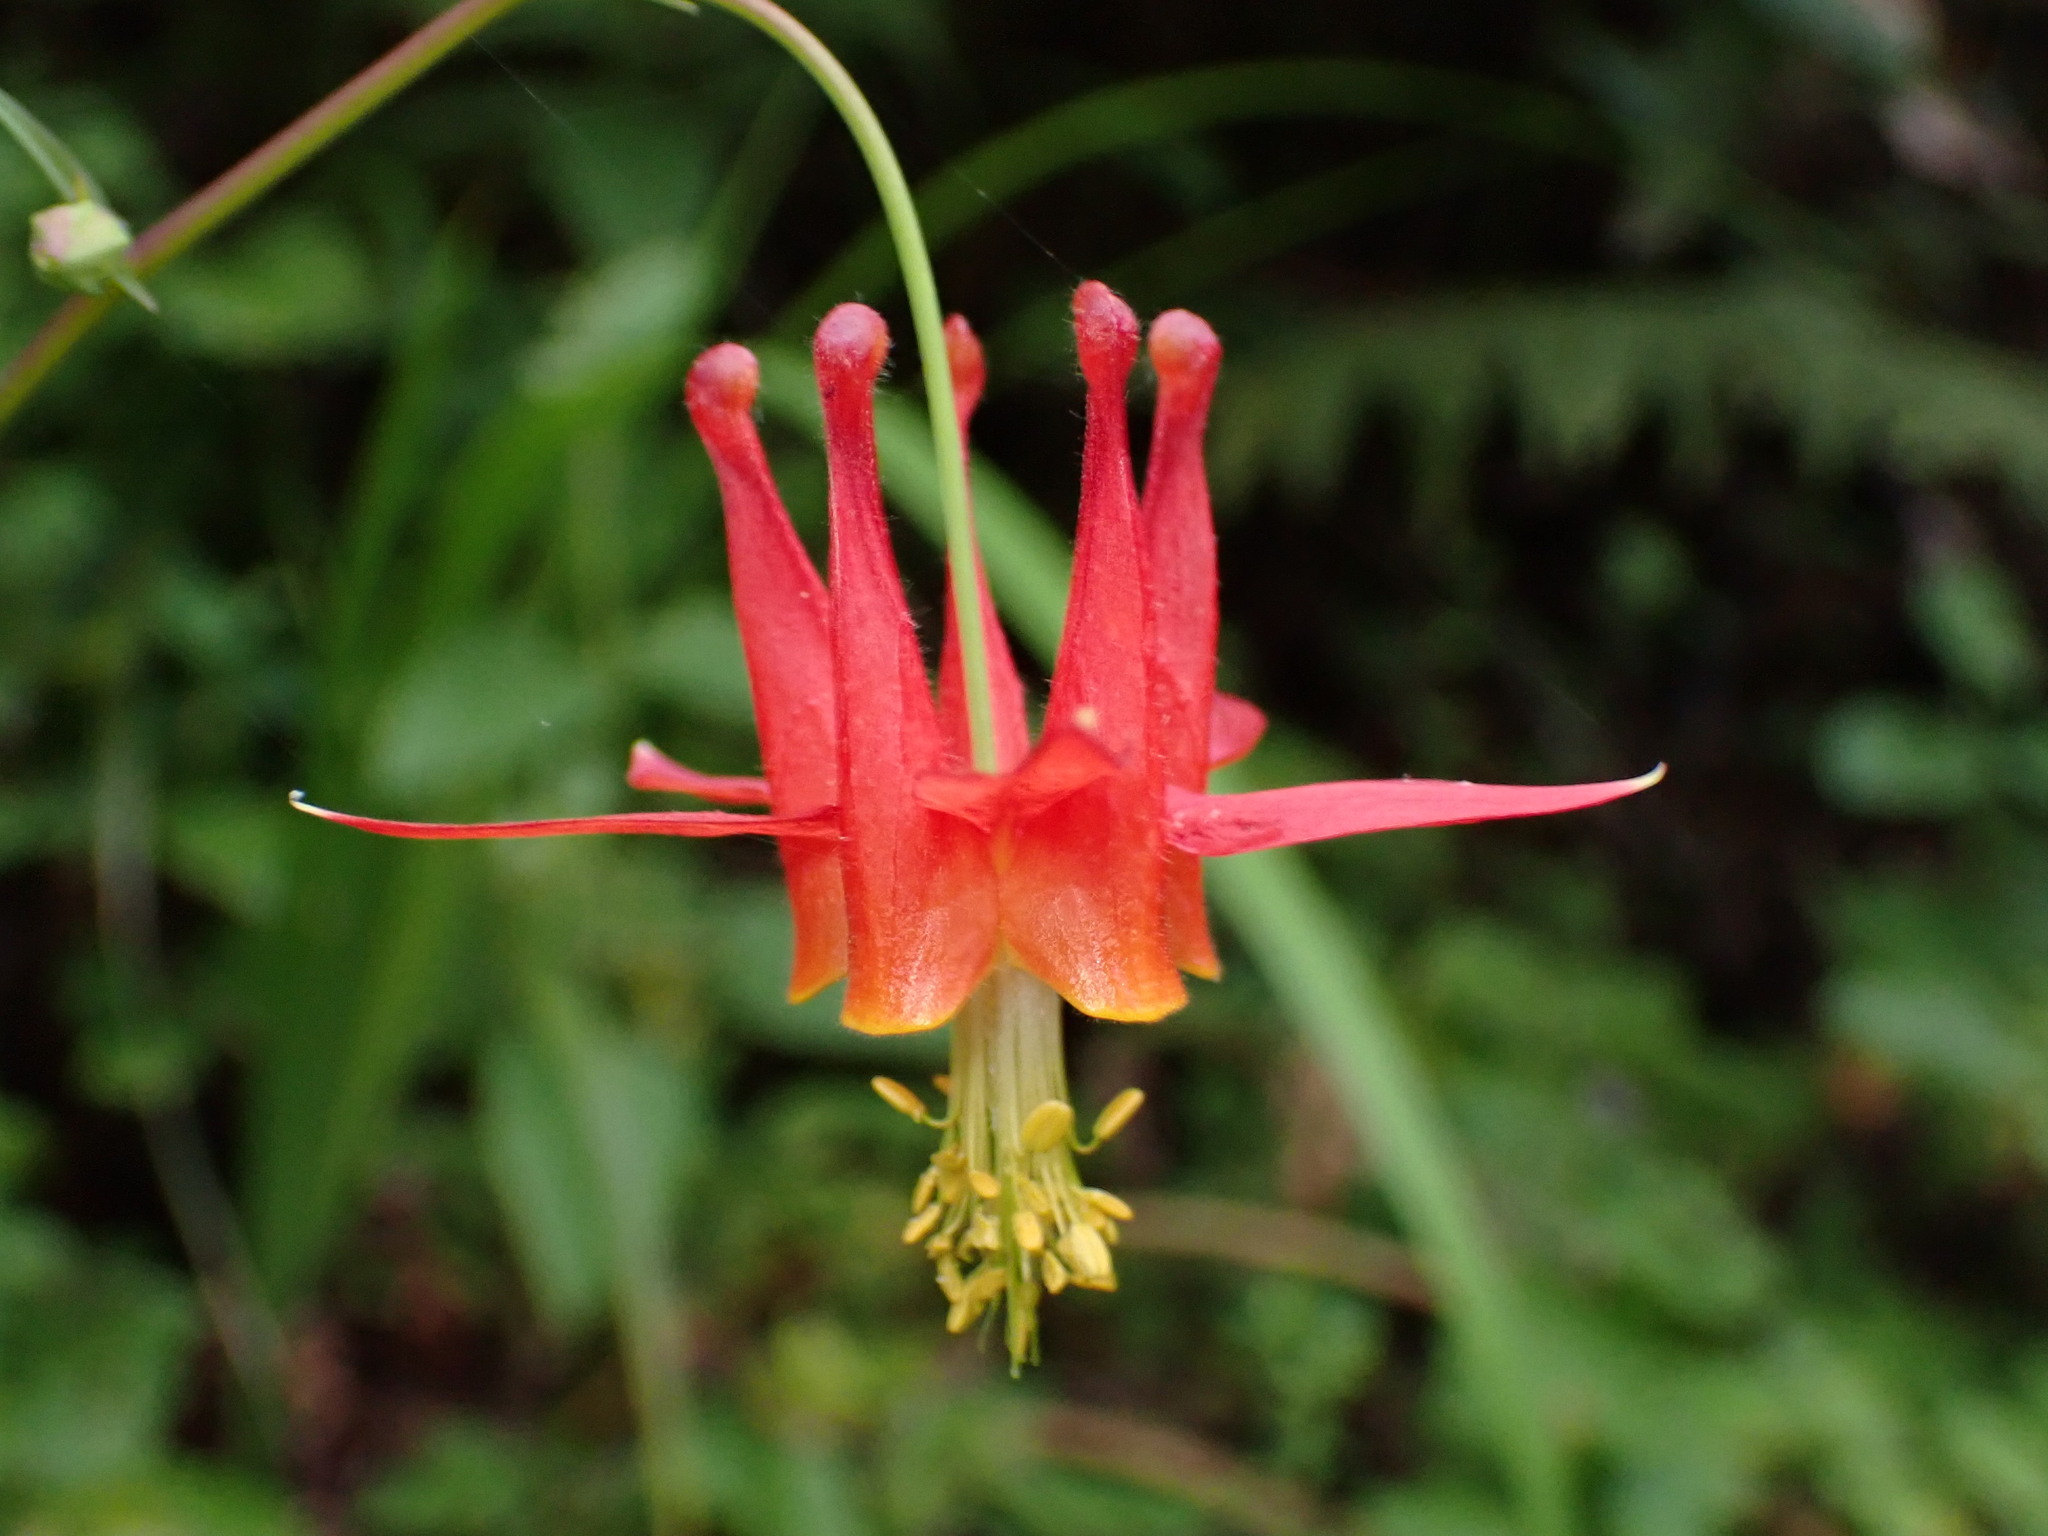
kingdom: Plantae
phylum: Tracheophyta
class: Magnoliopsida
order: Ranunculales
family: Ranunculaceae
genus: Aquilegia
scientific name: Aquilegia formosa
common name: Sitka columbine
